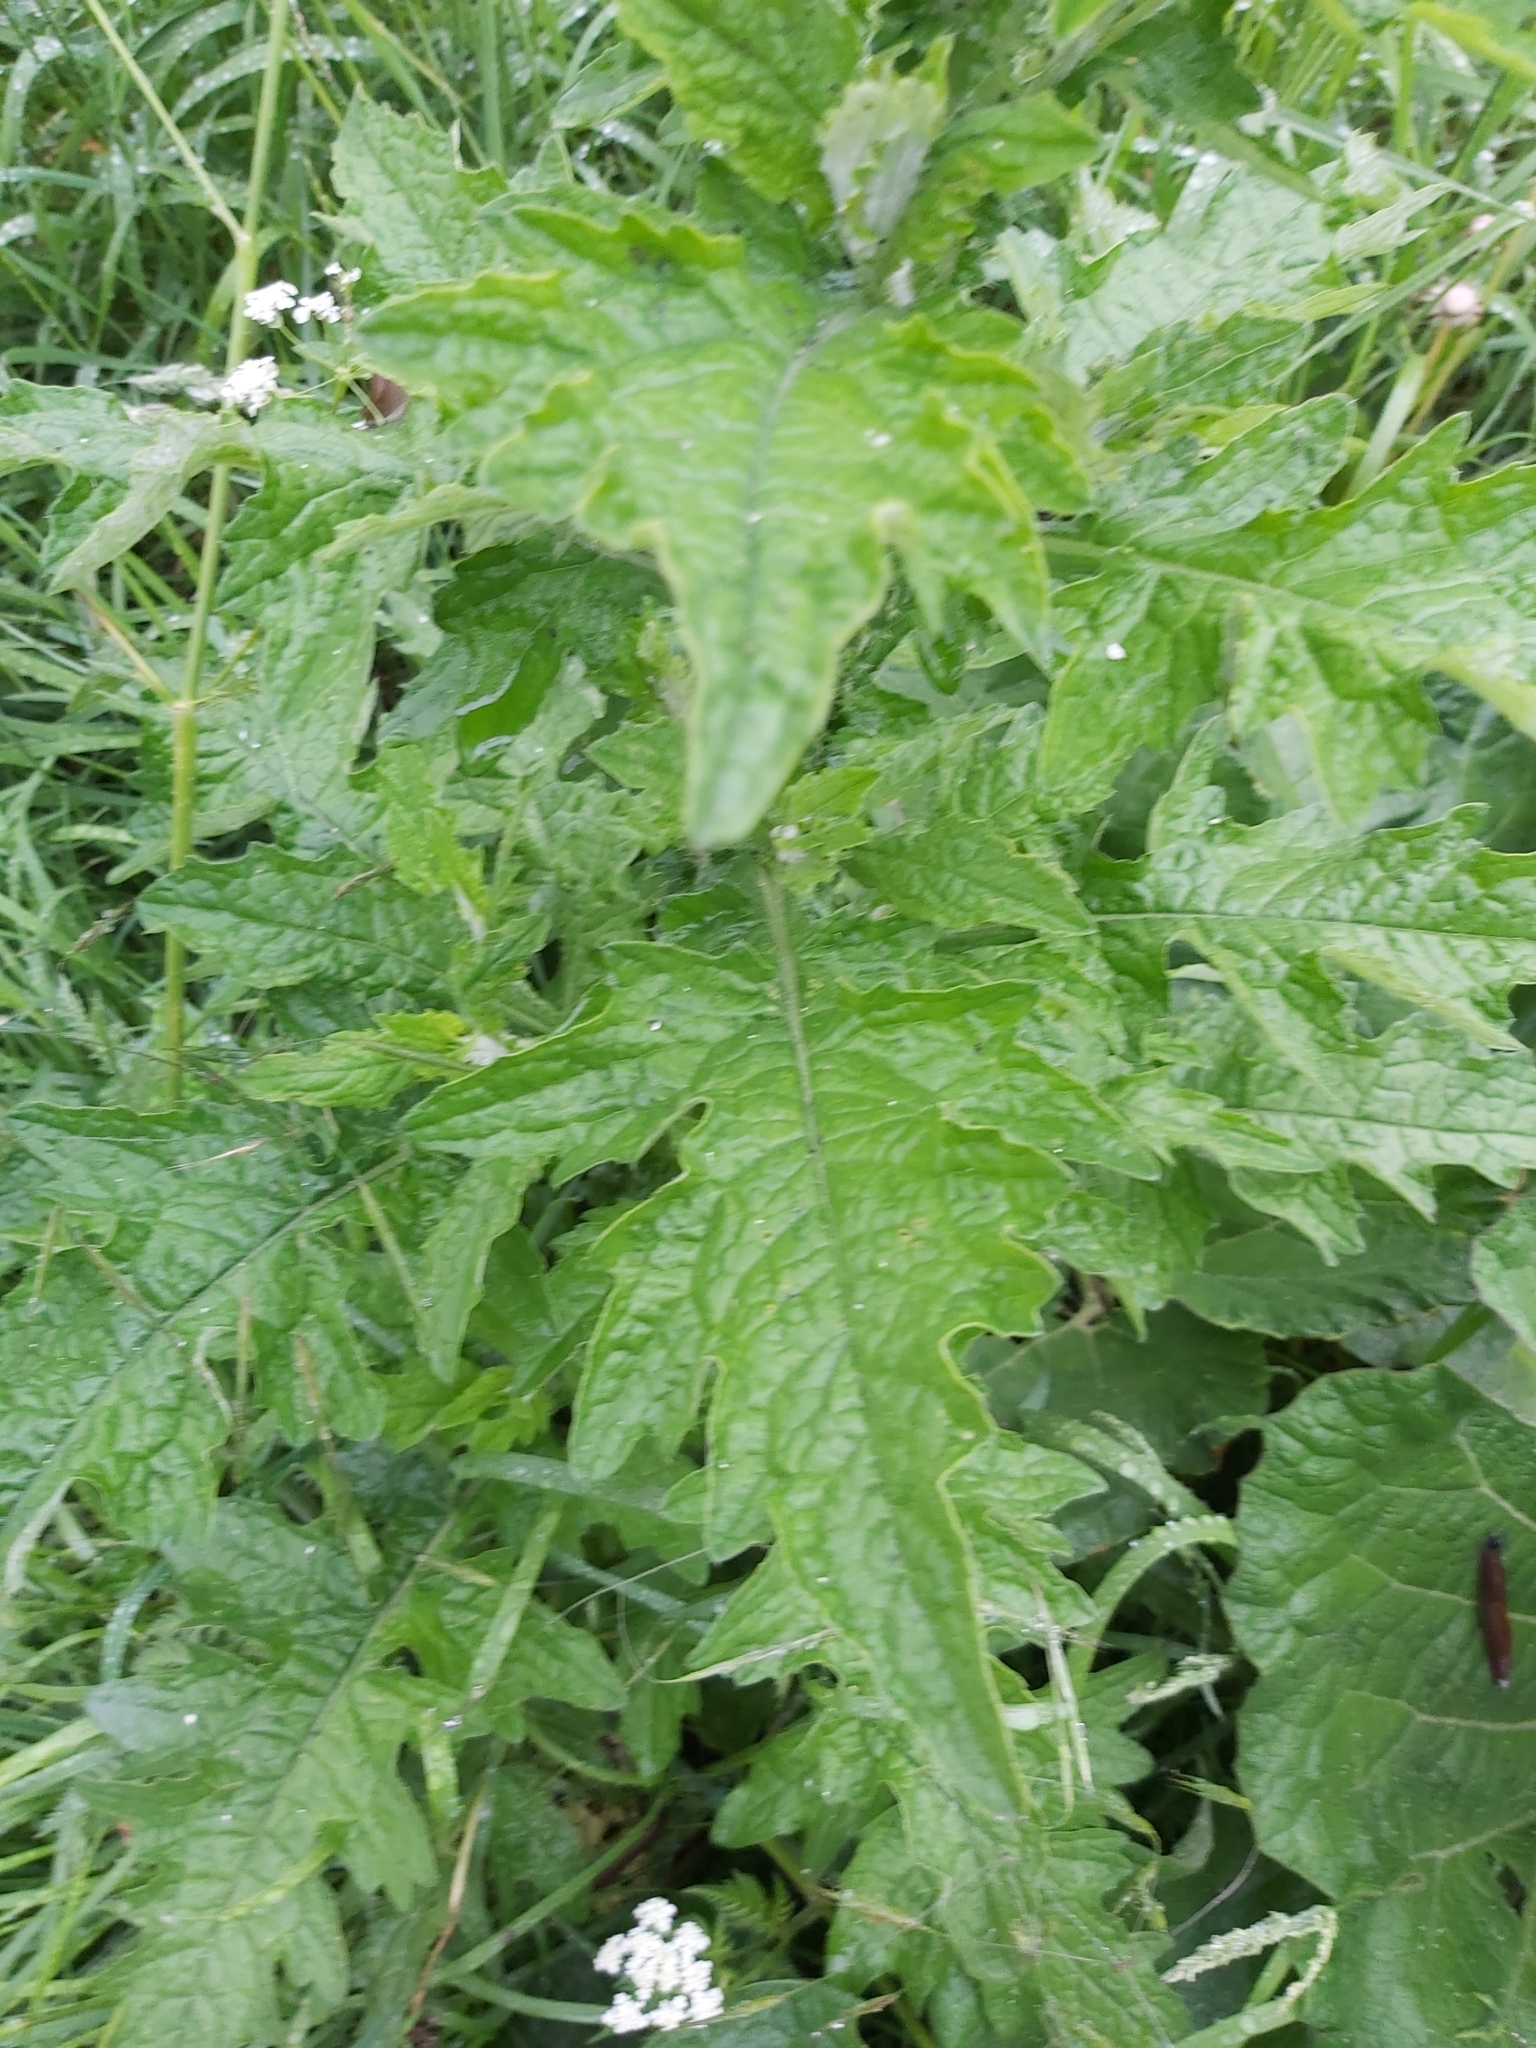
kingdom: Plantae
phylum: Tracheophyta
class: Magnoliopsida
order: Asterales
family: Asteraceae
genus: Carduus
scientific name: Carduus crispus
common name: Welted thistle
